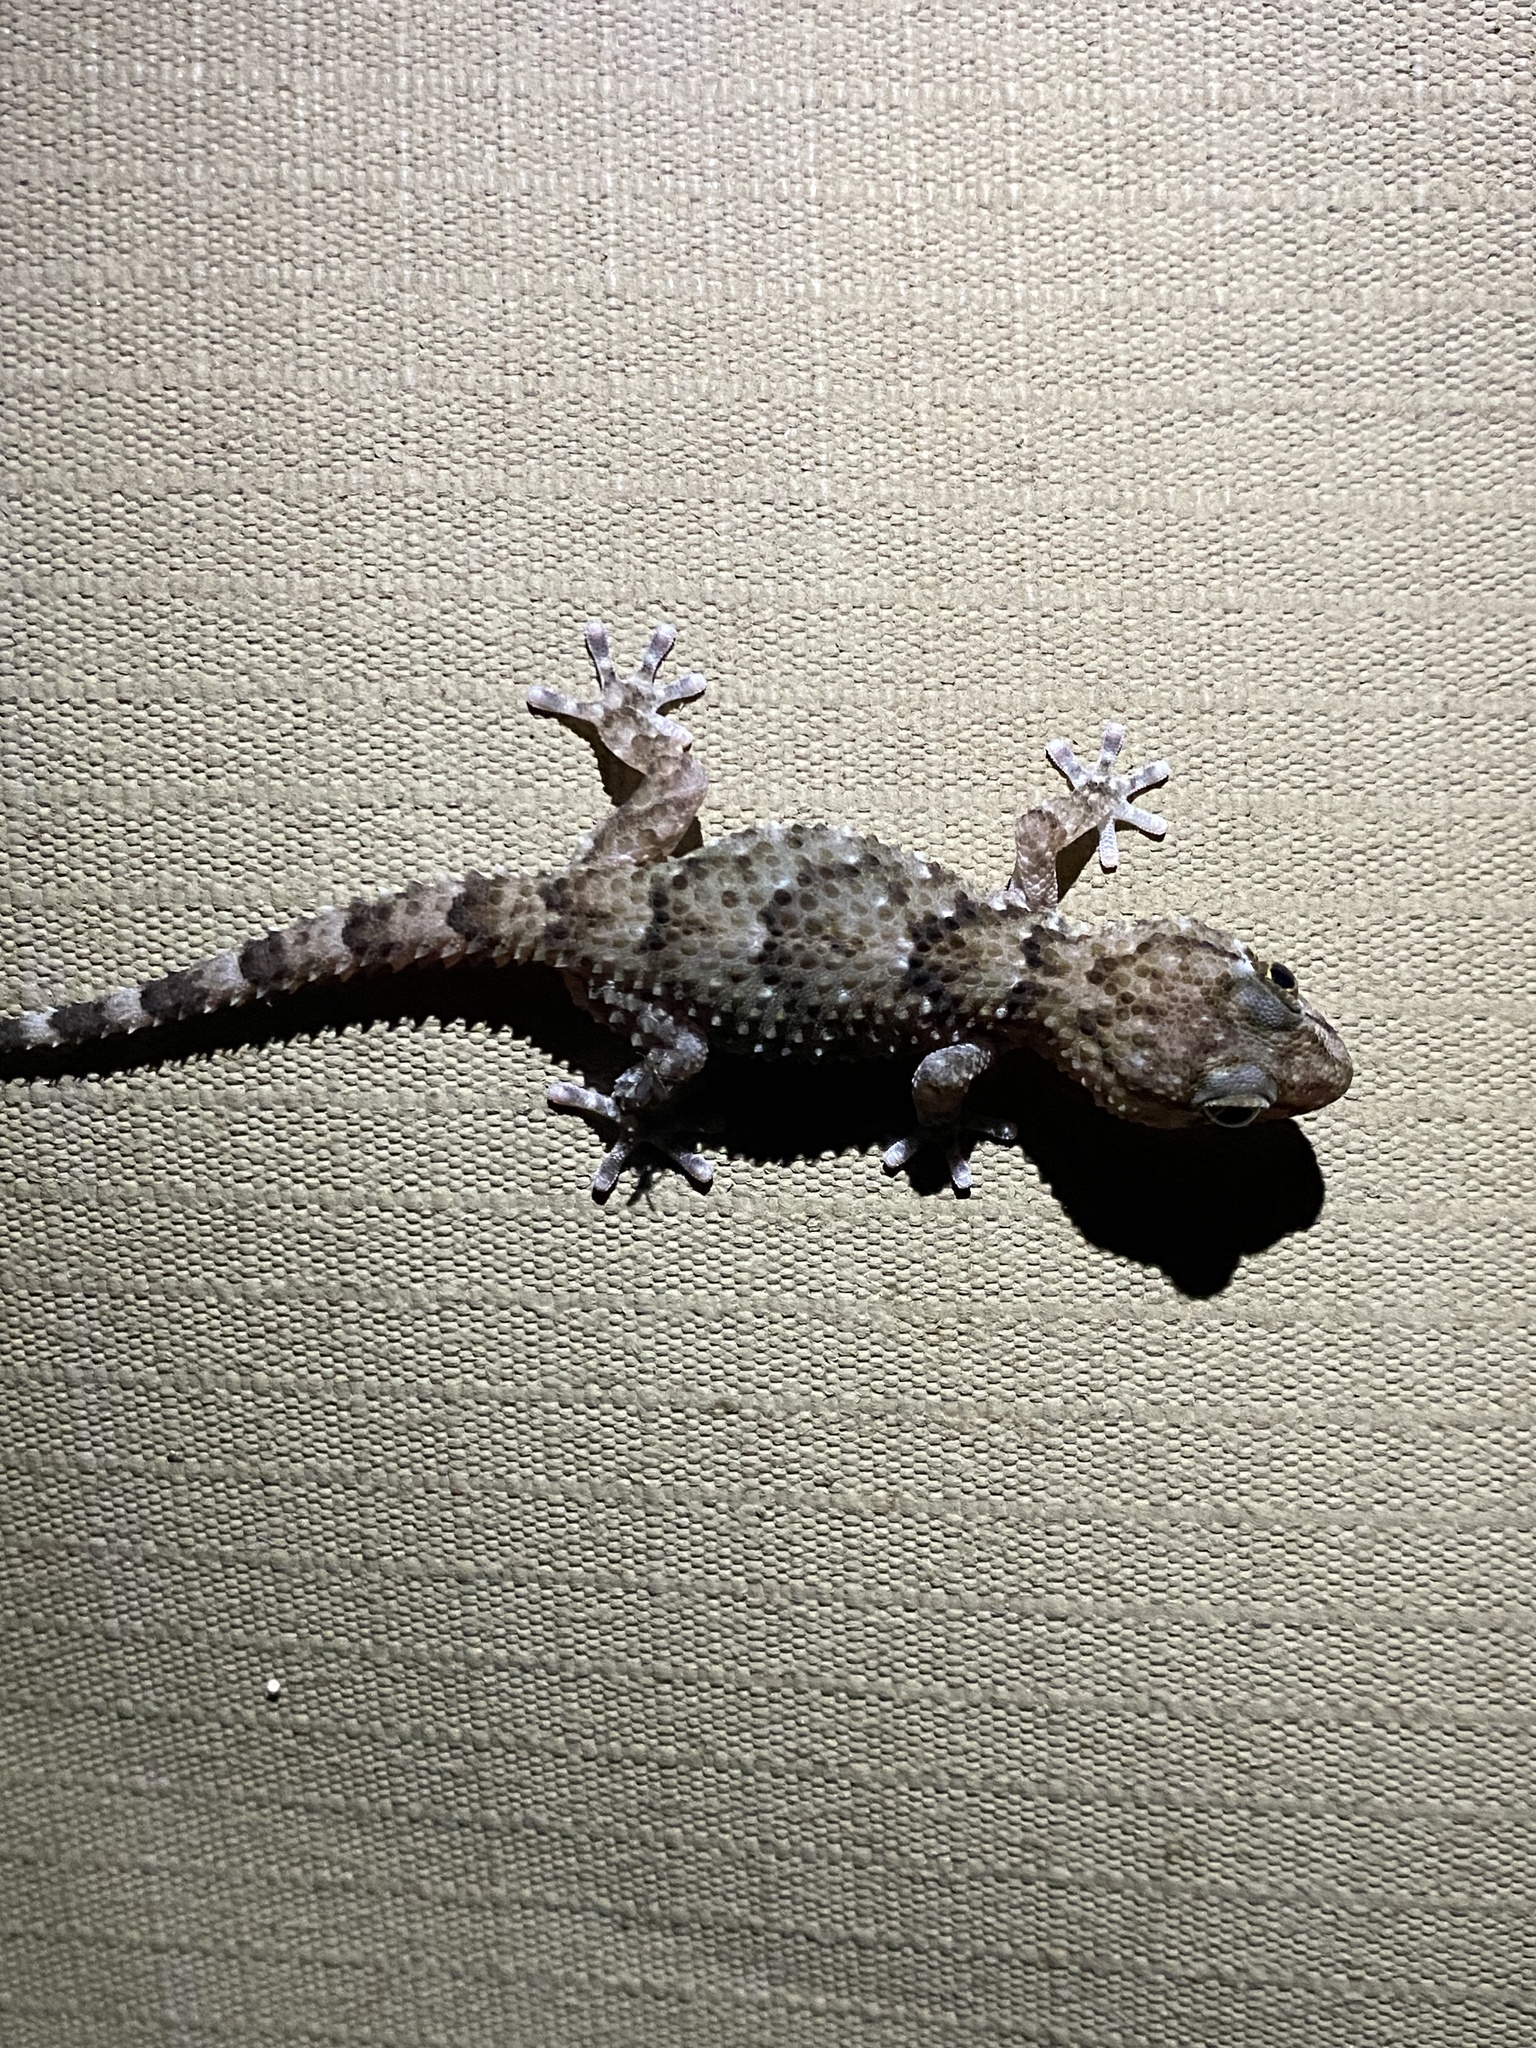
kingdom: Animalia
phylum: Chordata
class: Squamata
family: Gekkonidae
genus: Chondrodactylus
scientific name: Chondrodactylus turneri
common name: Turner’s gecko
